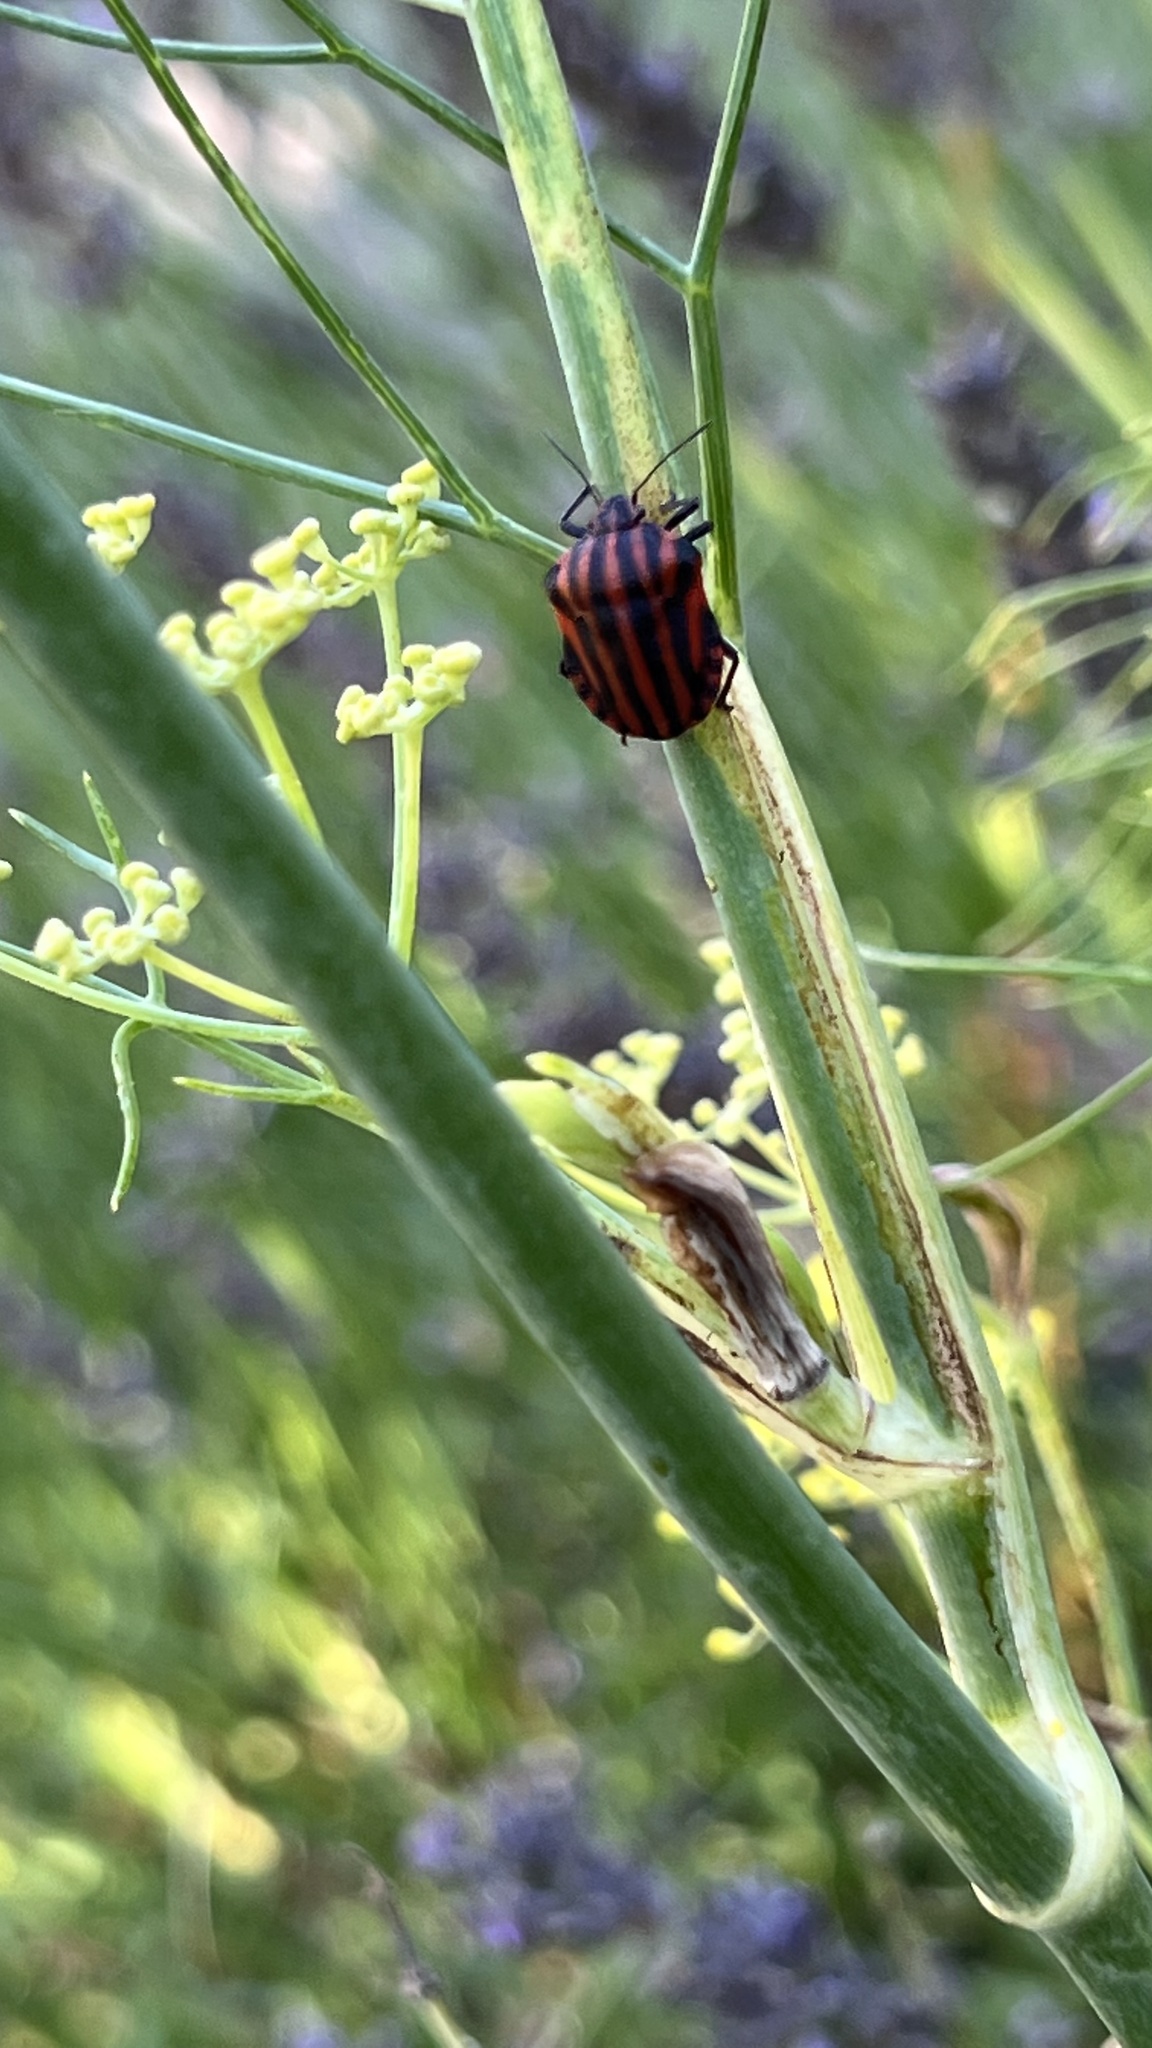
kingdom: Animalia
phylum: Arthropoda
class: Insecta
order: Hemiptera
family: Pentatomidae
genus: Graphosoma
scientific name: Graphosoma italicum
